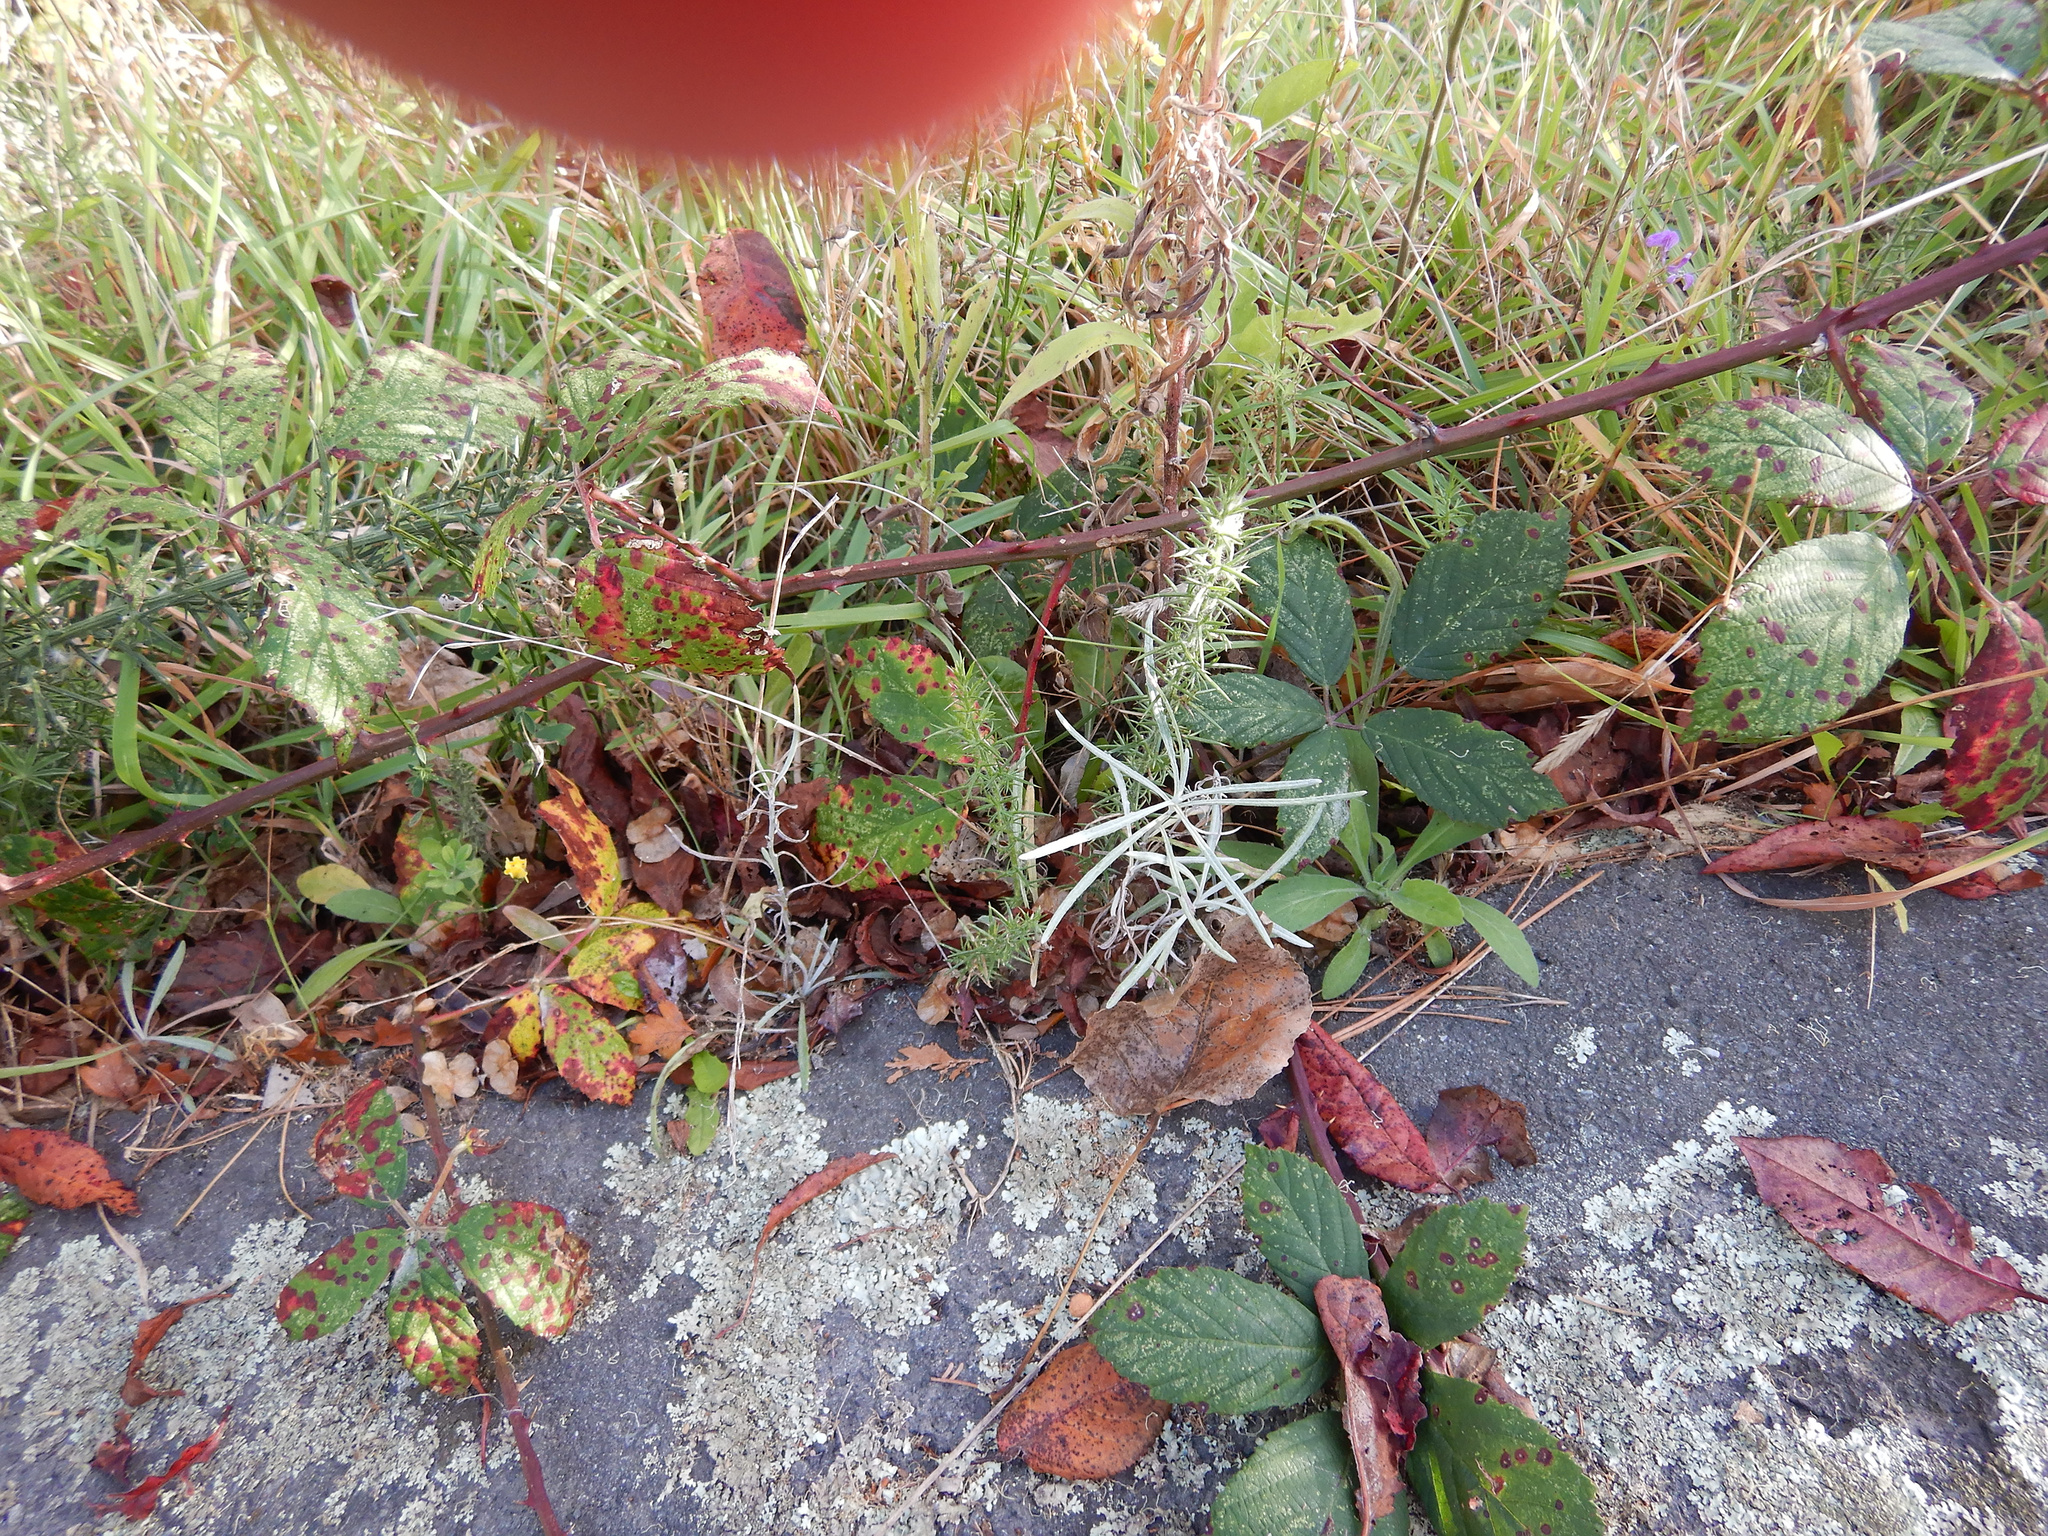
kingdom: Plantae
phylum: Tracheophyta
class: Magnoliopsida
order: Asterales
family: Asteraceae
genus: Senecio
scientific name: Senecio quadridentatus
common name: Cotton fireweed
